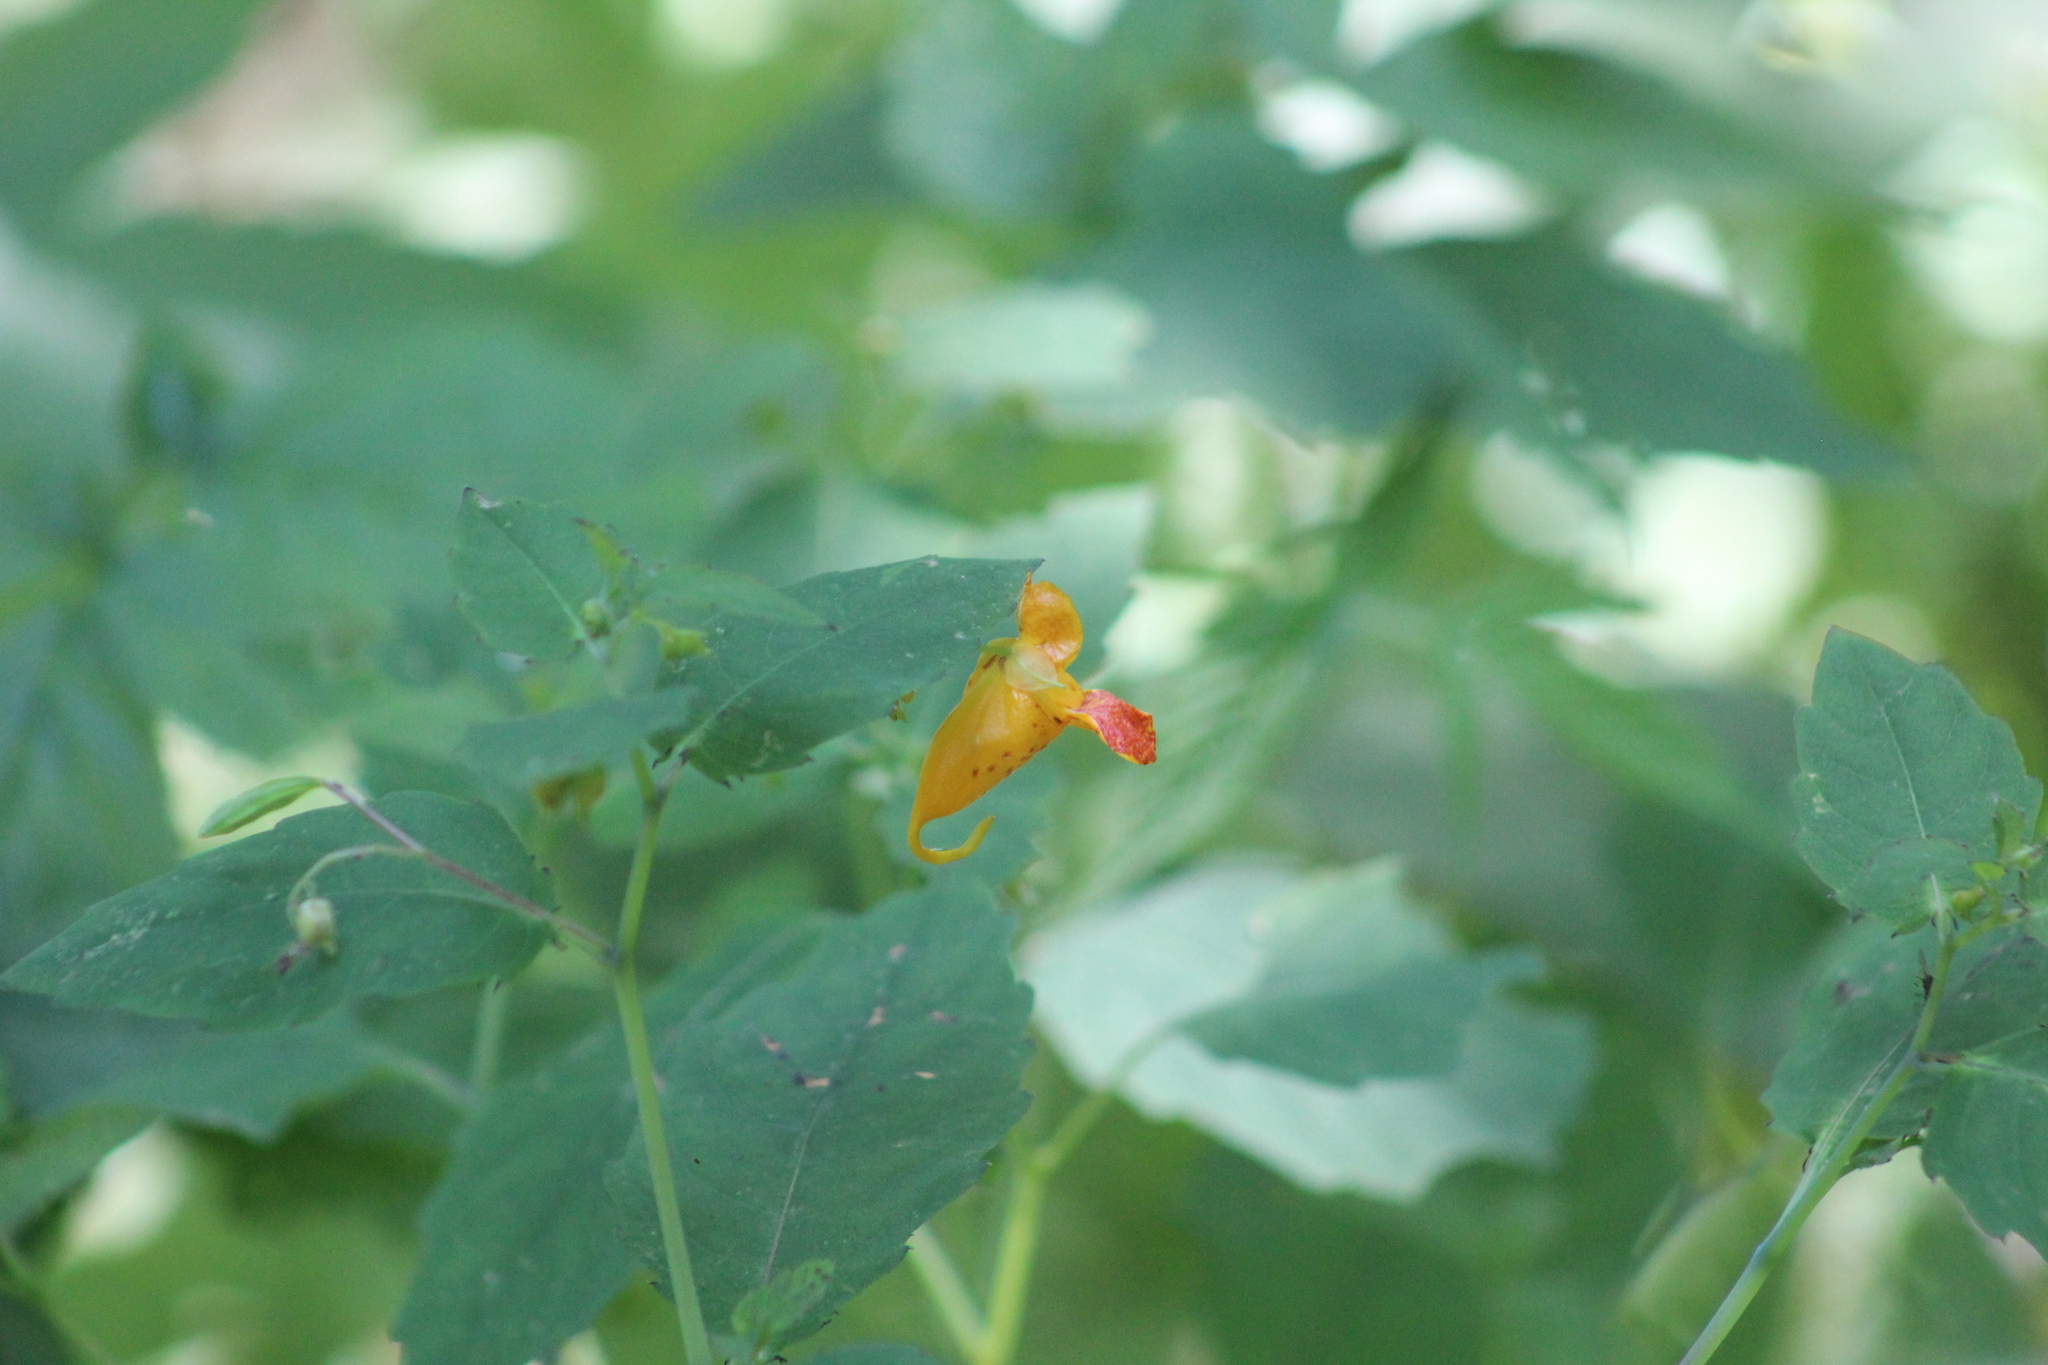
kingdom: Plantae
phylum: Tracheophyta
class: Magnoliopsida
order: Ericales
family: Balsaminaceae
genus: Impatiens
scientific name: Impatiens capensis
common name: Orange balsam
